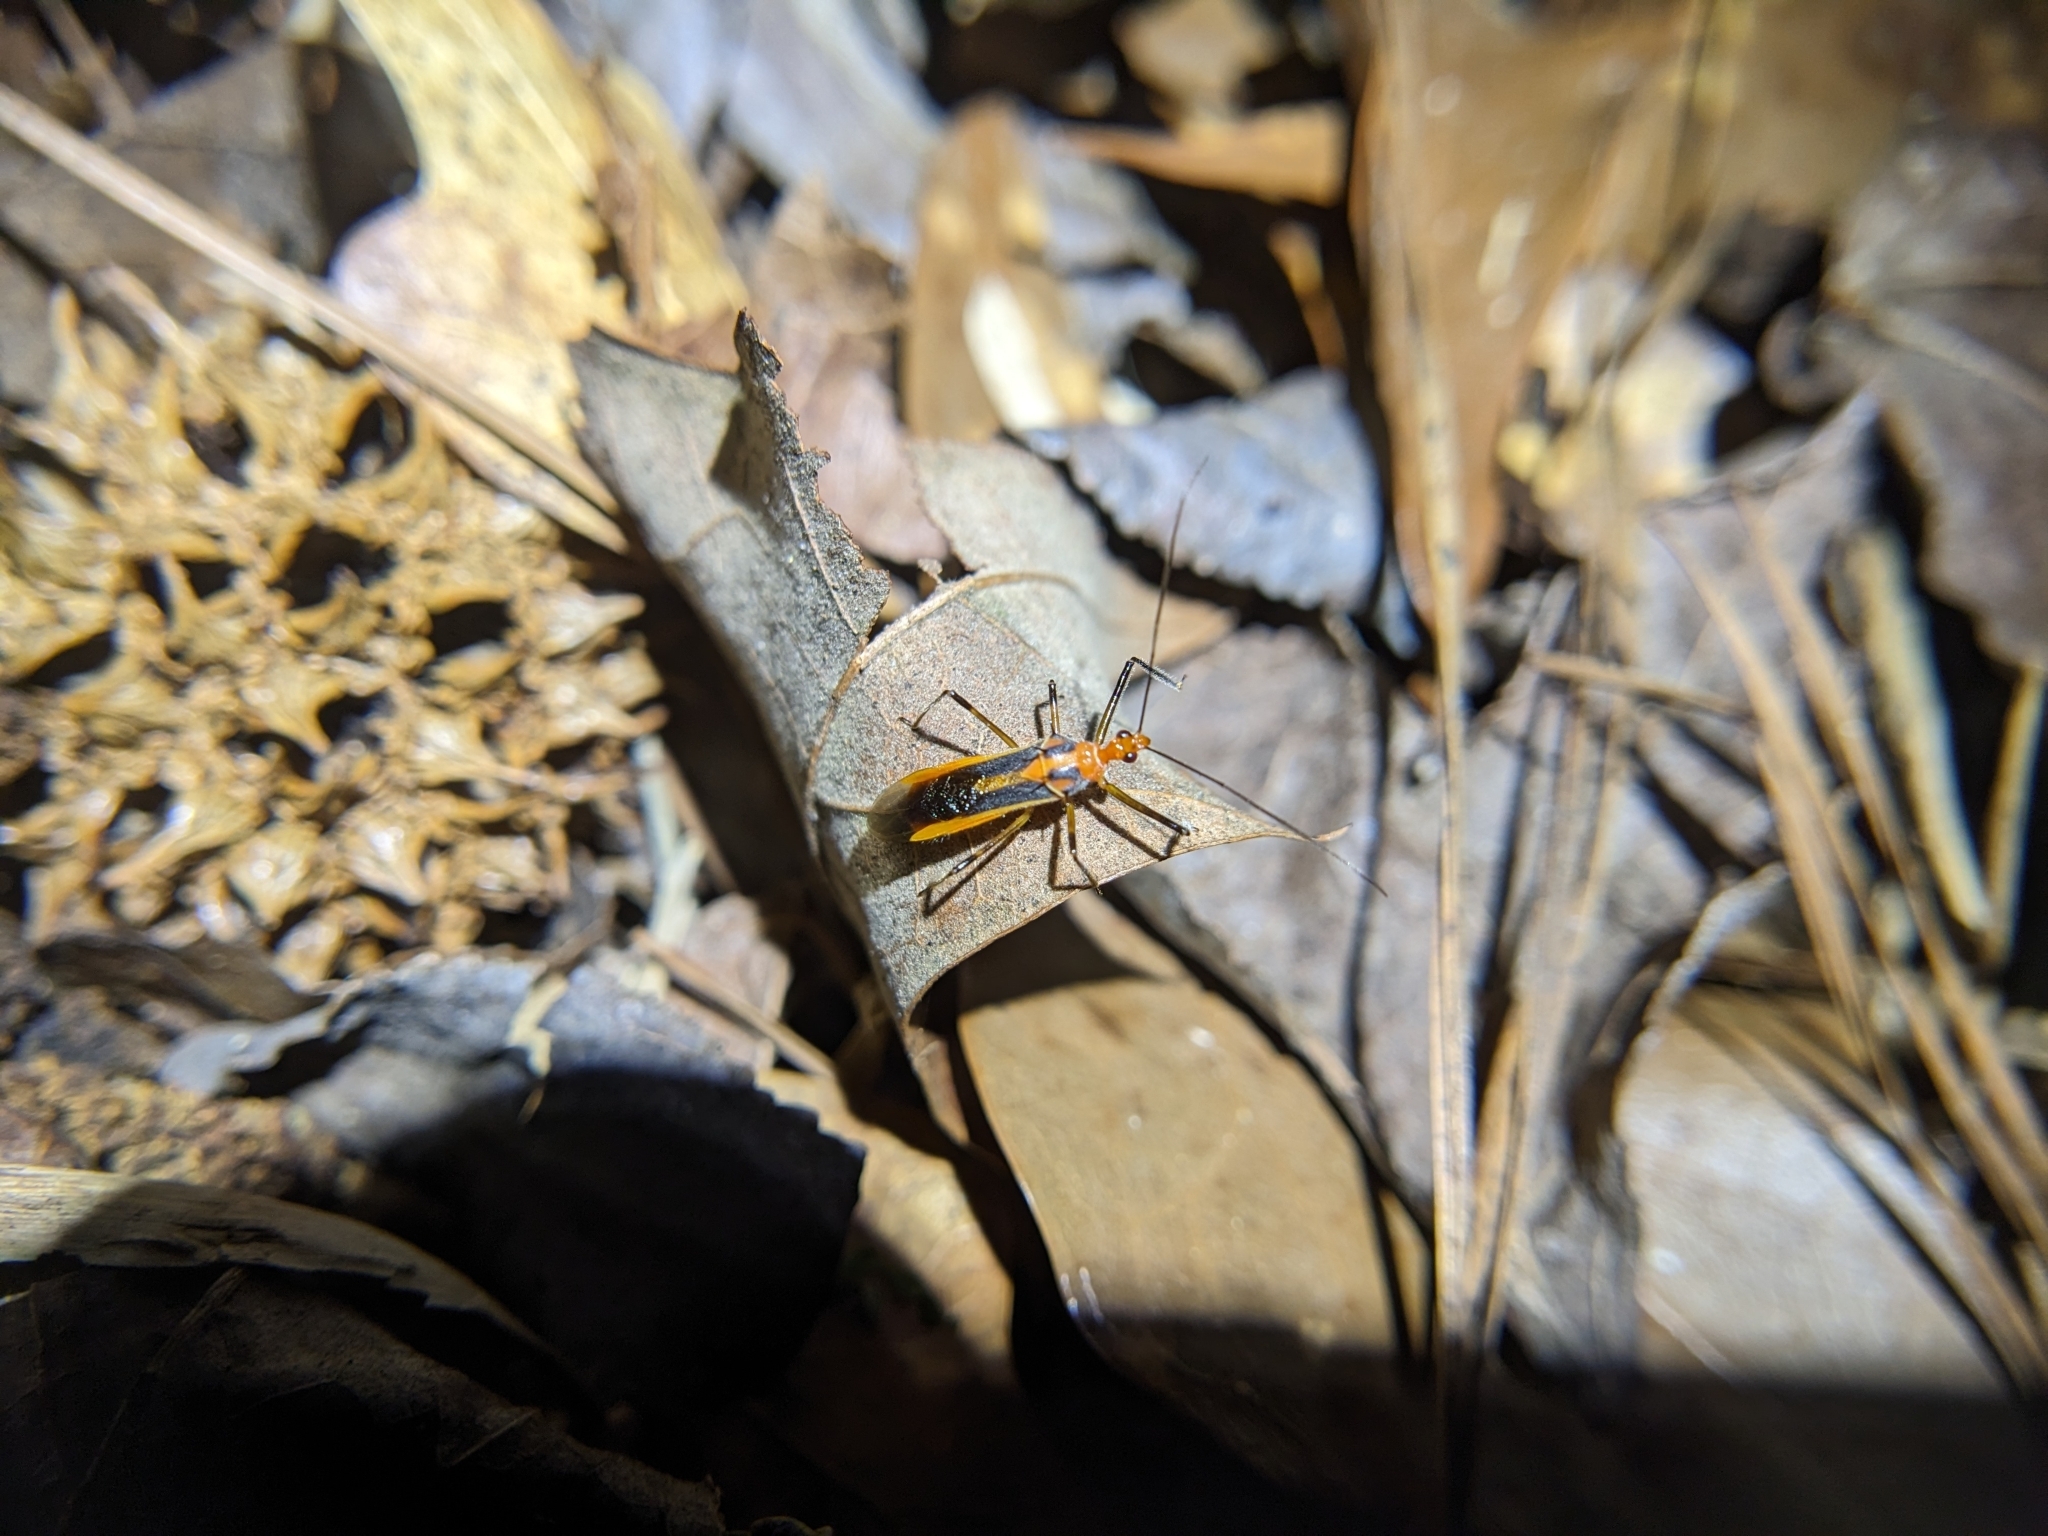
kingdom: Animalia
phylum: Arthropoda
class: Insecta
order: Hemiptera
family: Reduviidae
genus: Repipta
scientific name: Repipta taurus
